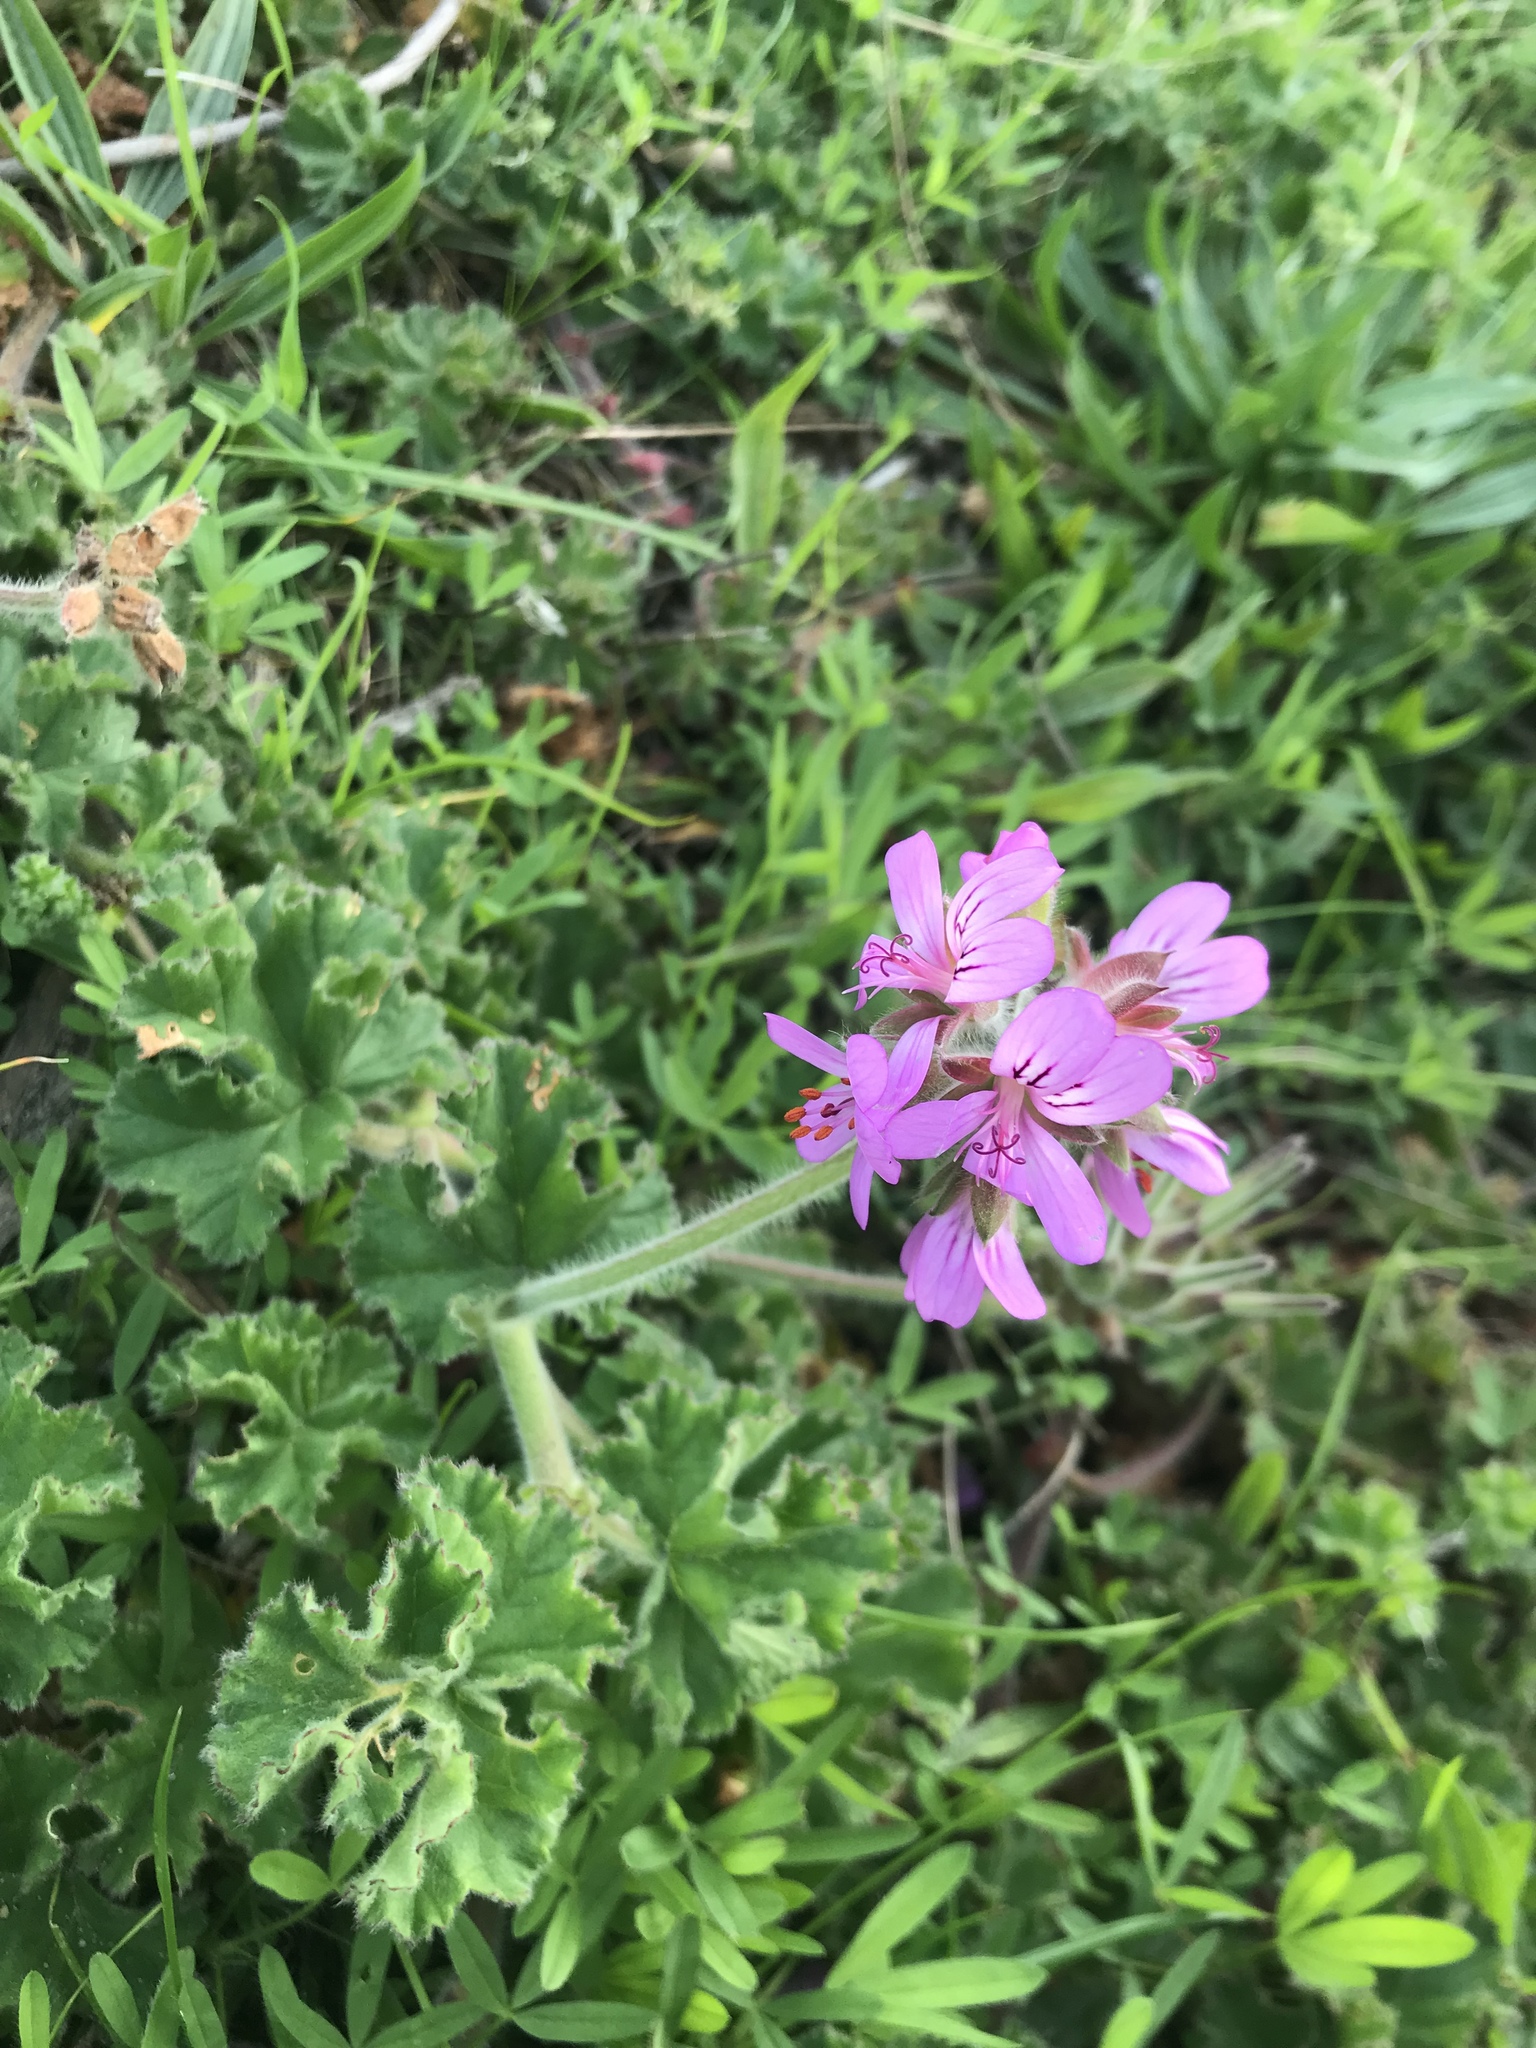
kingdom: Plantae
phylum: Tracheophyta
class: Magnoliopsida
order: Geraniales
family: Geraniaceae
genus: Pelargonium
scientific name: Pelargonium capitatum
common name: Rose scented geranium
